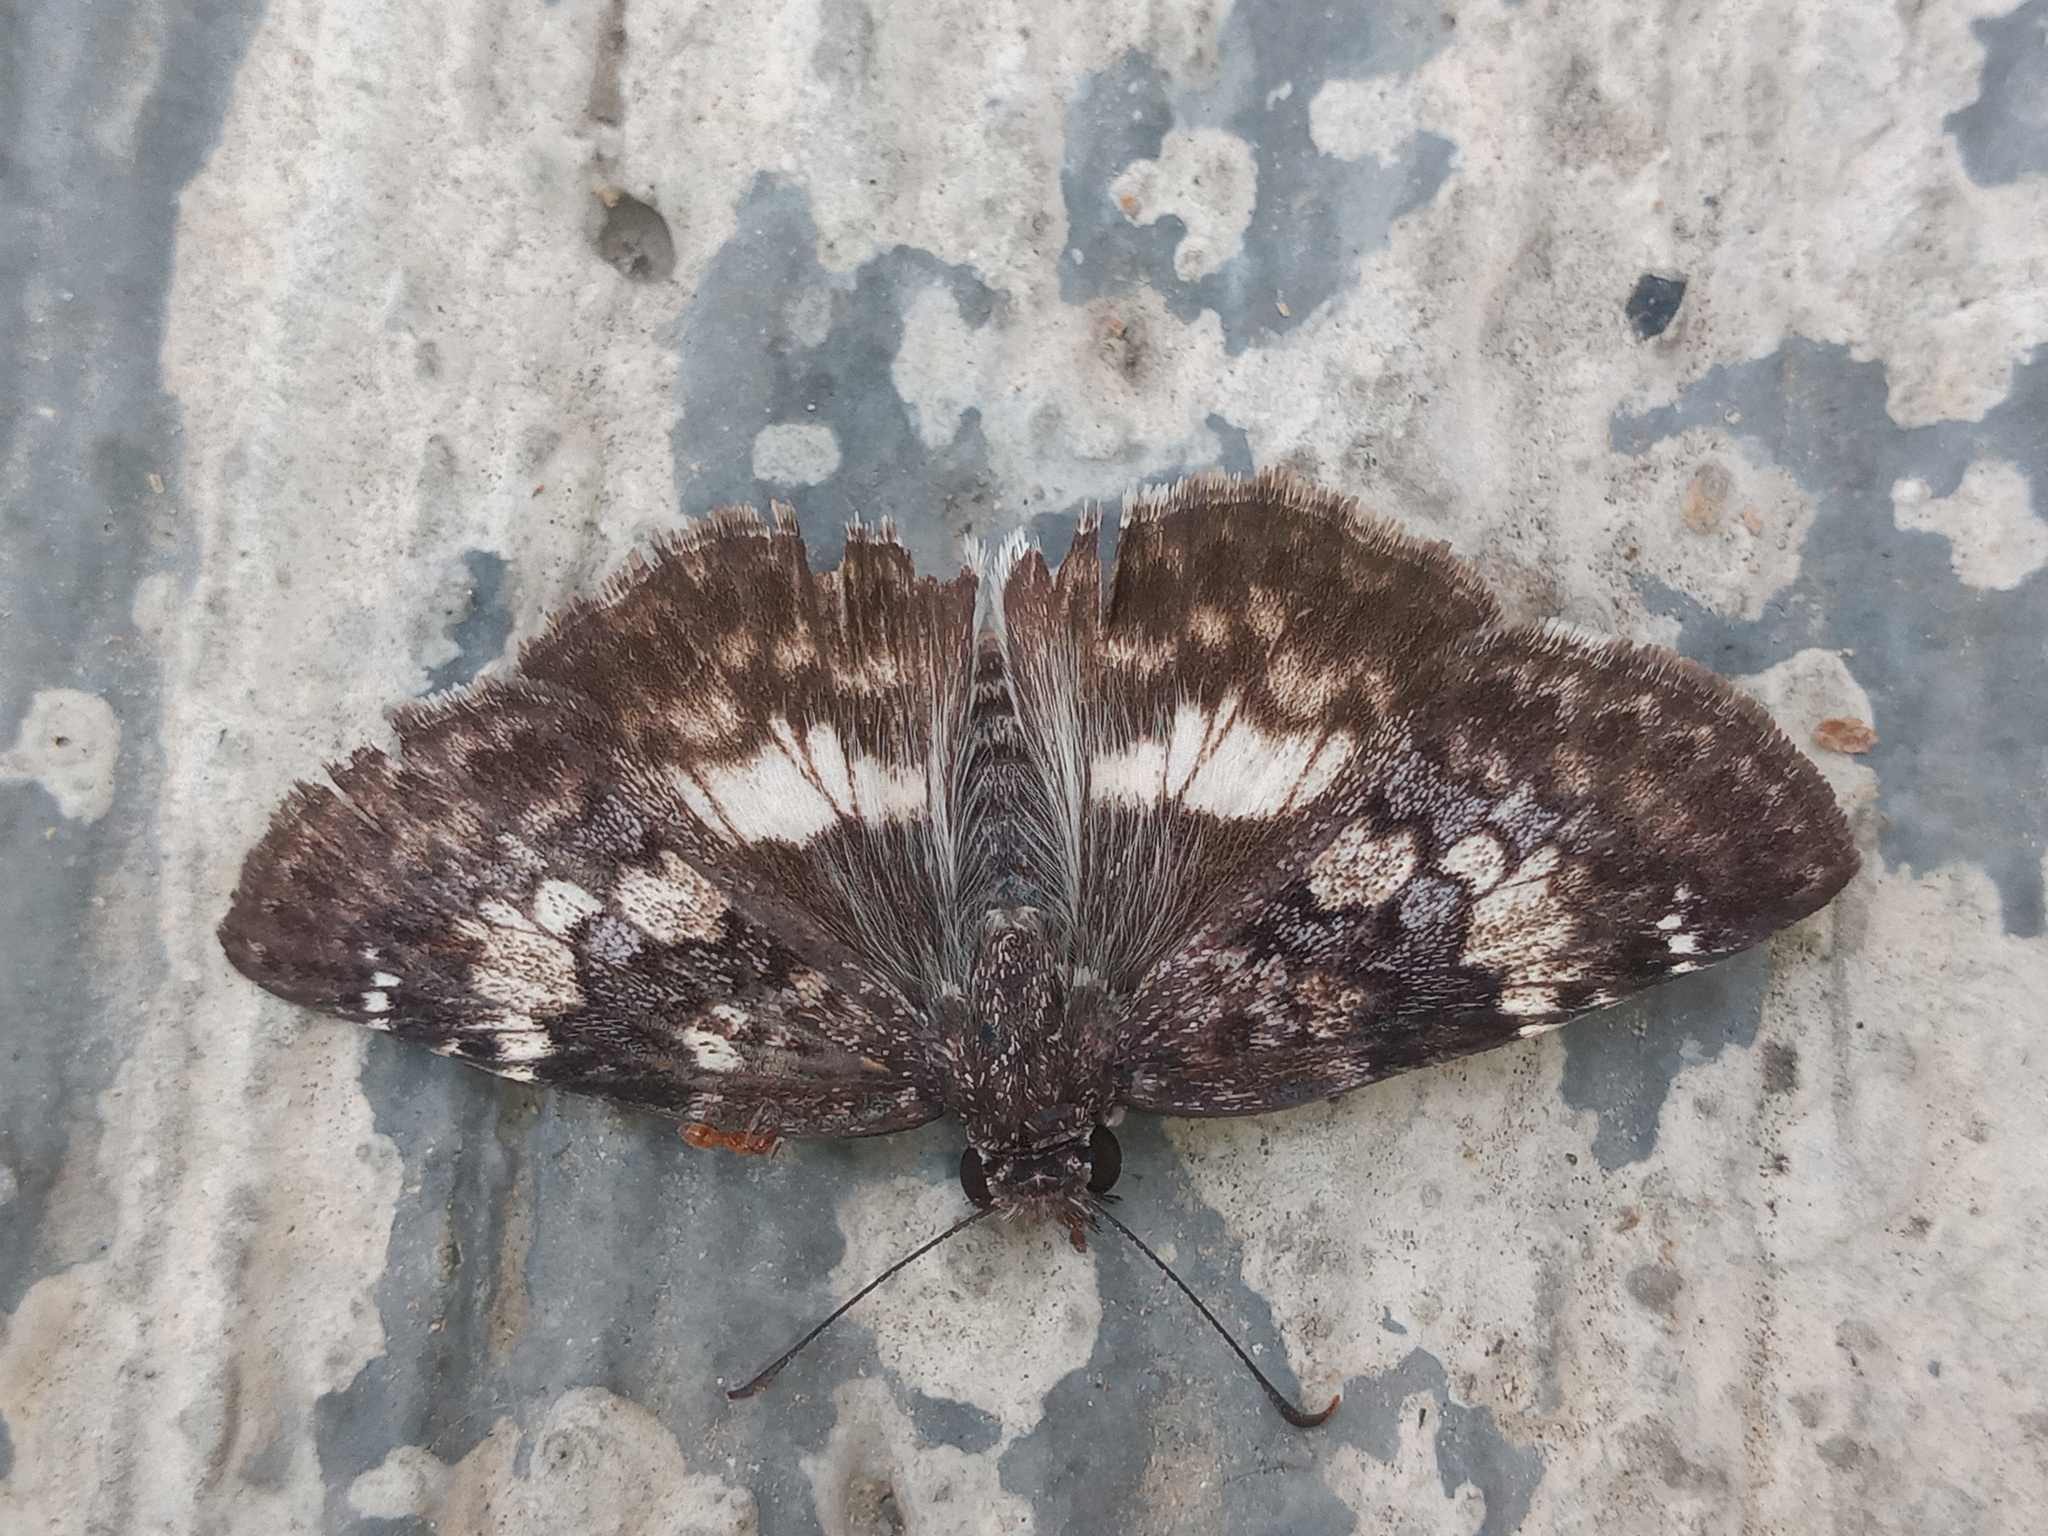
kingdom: Animalia
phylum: Arthropoda
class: Insecta
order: Lepidoptera
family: Hesperiidae
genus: Chiothion
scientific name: Chiothion georgina
